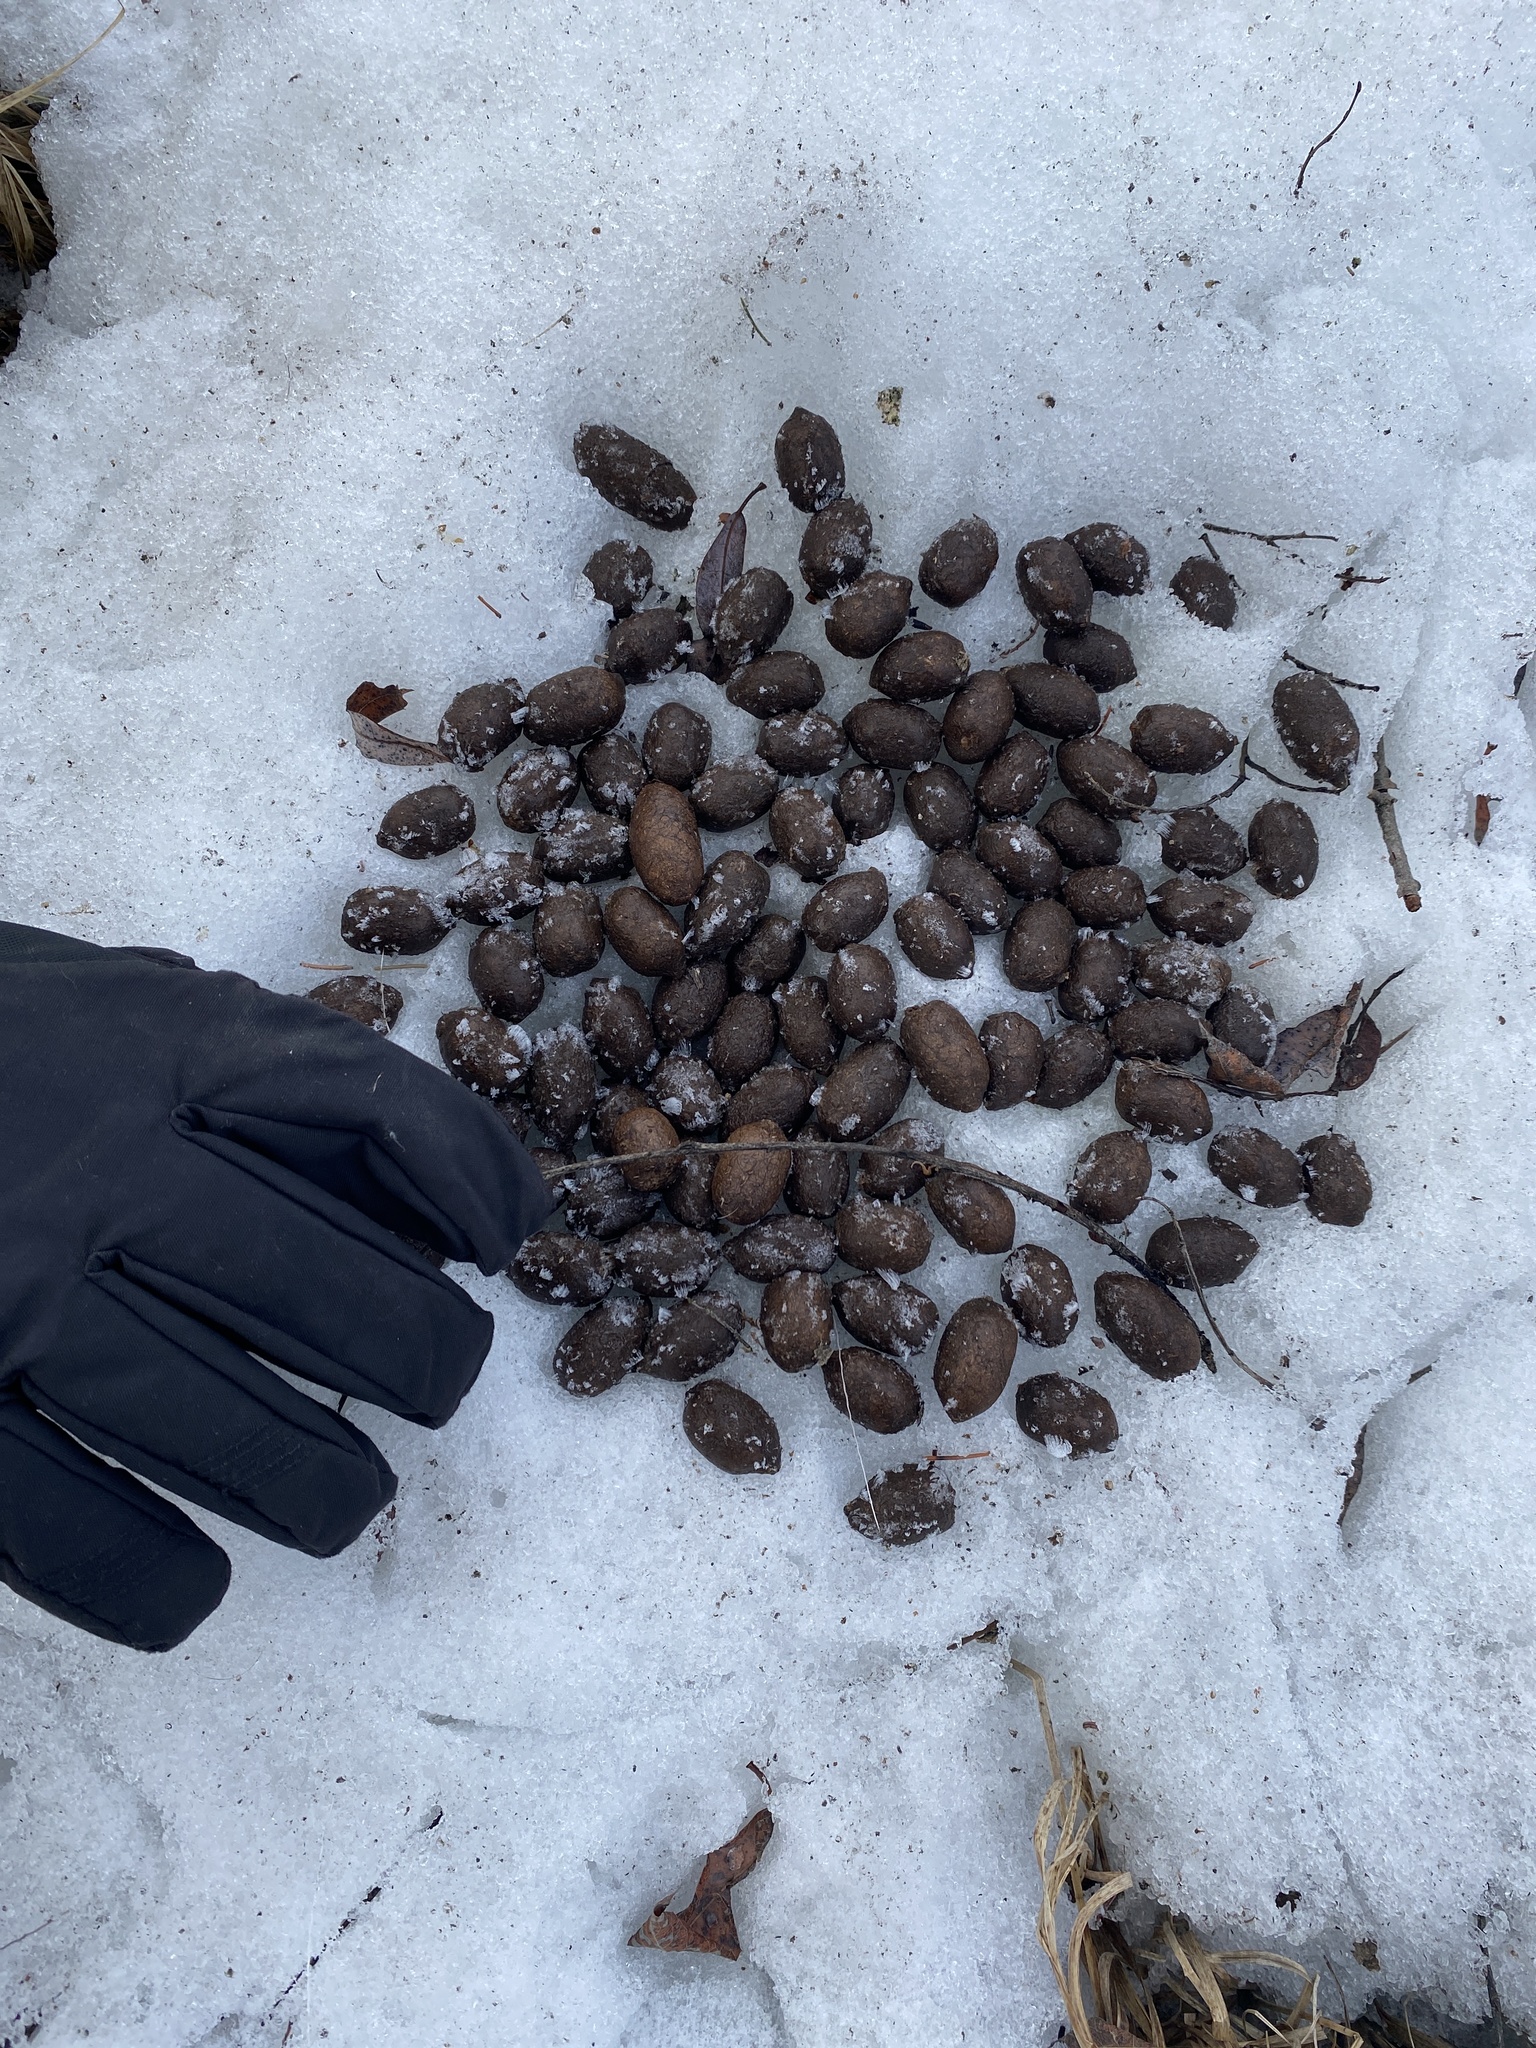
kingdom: Animalia
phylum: Chordata
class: Mammalia
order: Artiodactyla
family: Cervidae
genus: Alces
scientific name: Alces alces
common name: Moose
